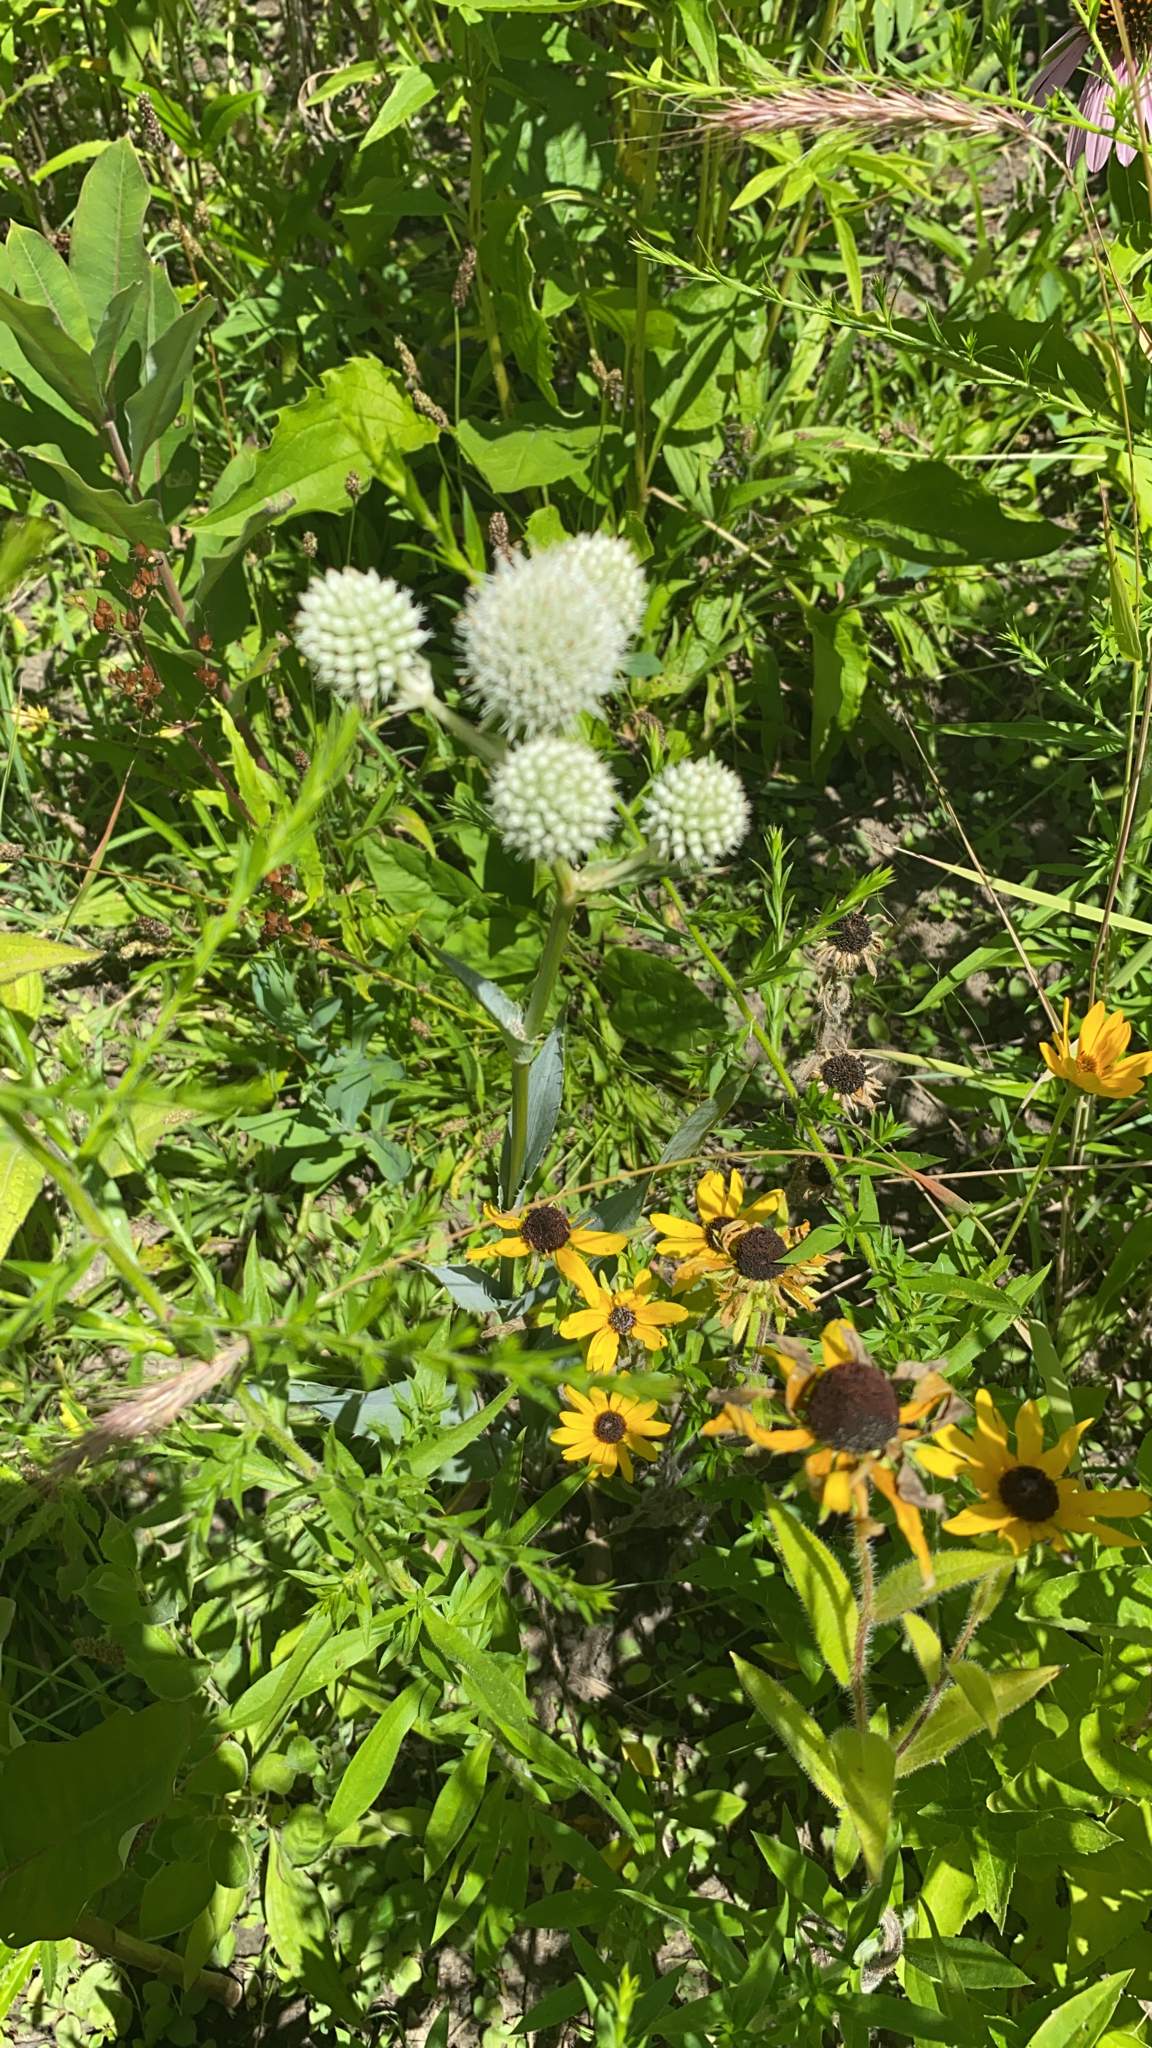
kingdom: Plantae
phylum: Tracheophyta
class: Magnoliopsida
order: Apiales
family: Apiaceae
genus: Eryngium
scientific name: Eryngium yuccifolium
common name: Button eryngo
